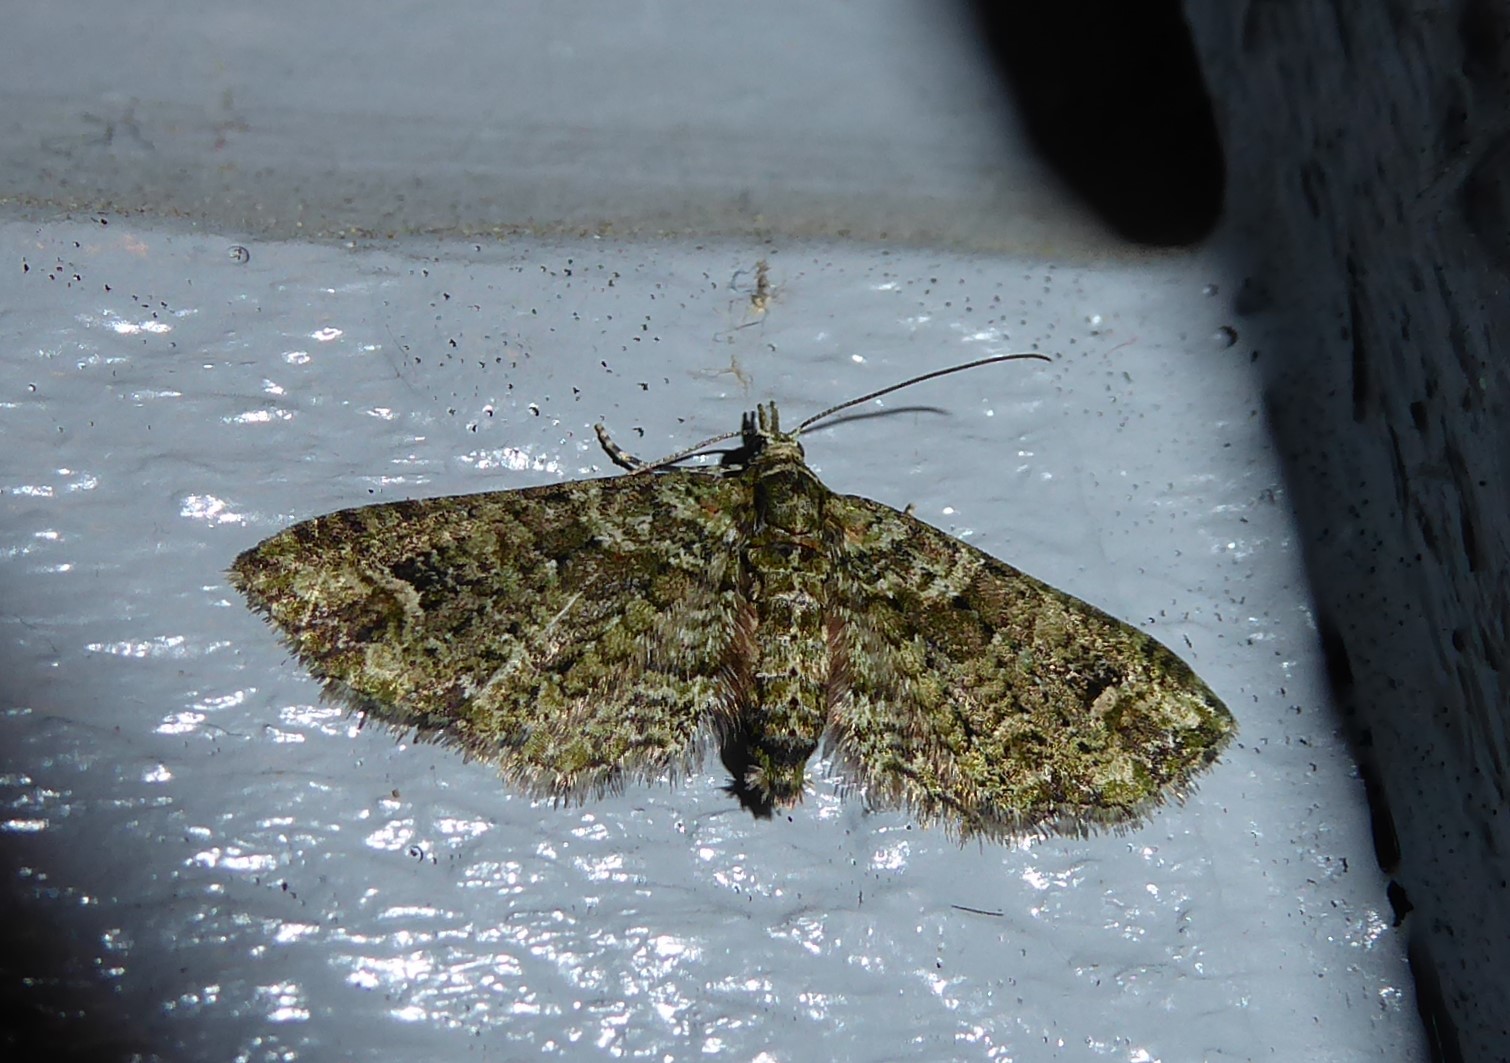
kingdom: Animalia
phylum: Arthropoda
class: Insecta
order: Lepidoptera
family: Geometridae
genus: Idaea
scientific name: Idaea mutanda
